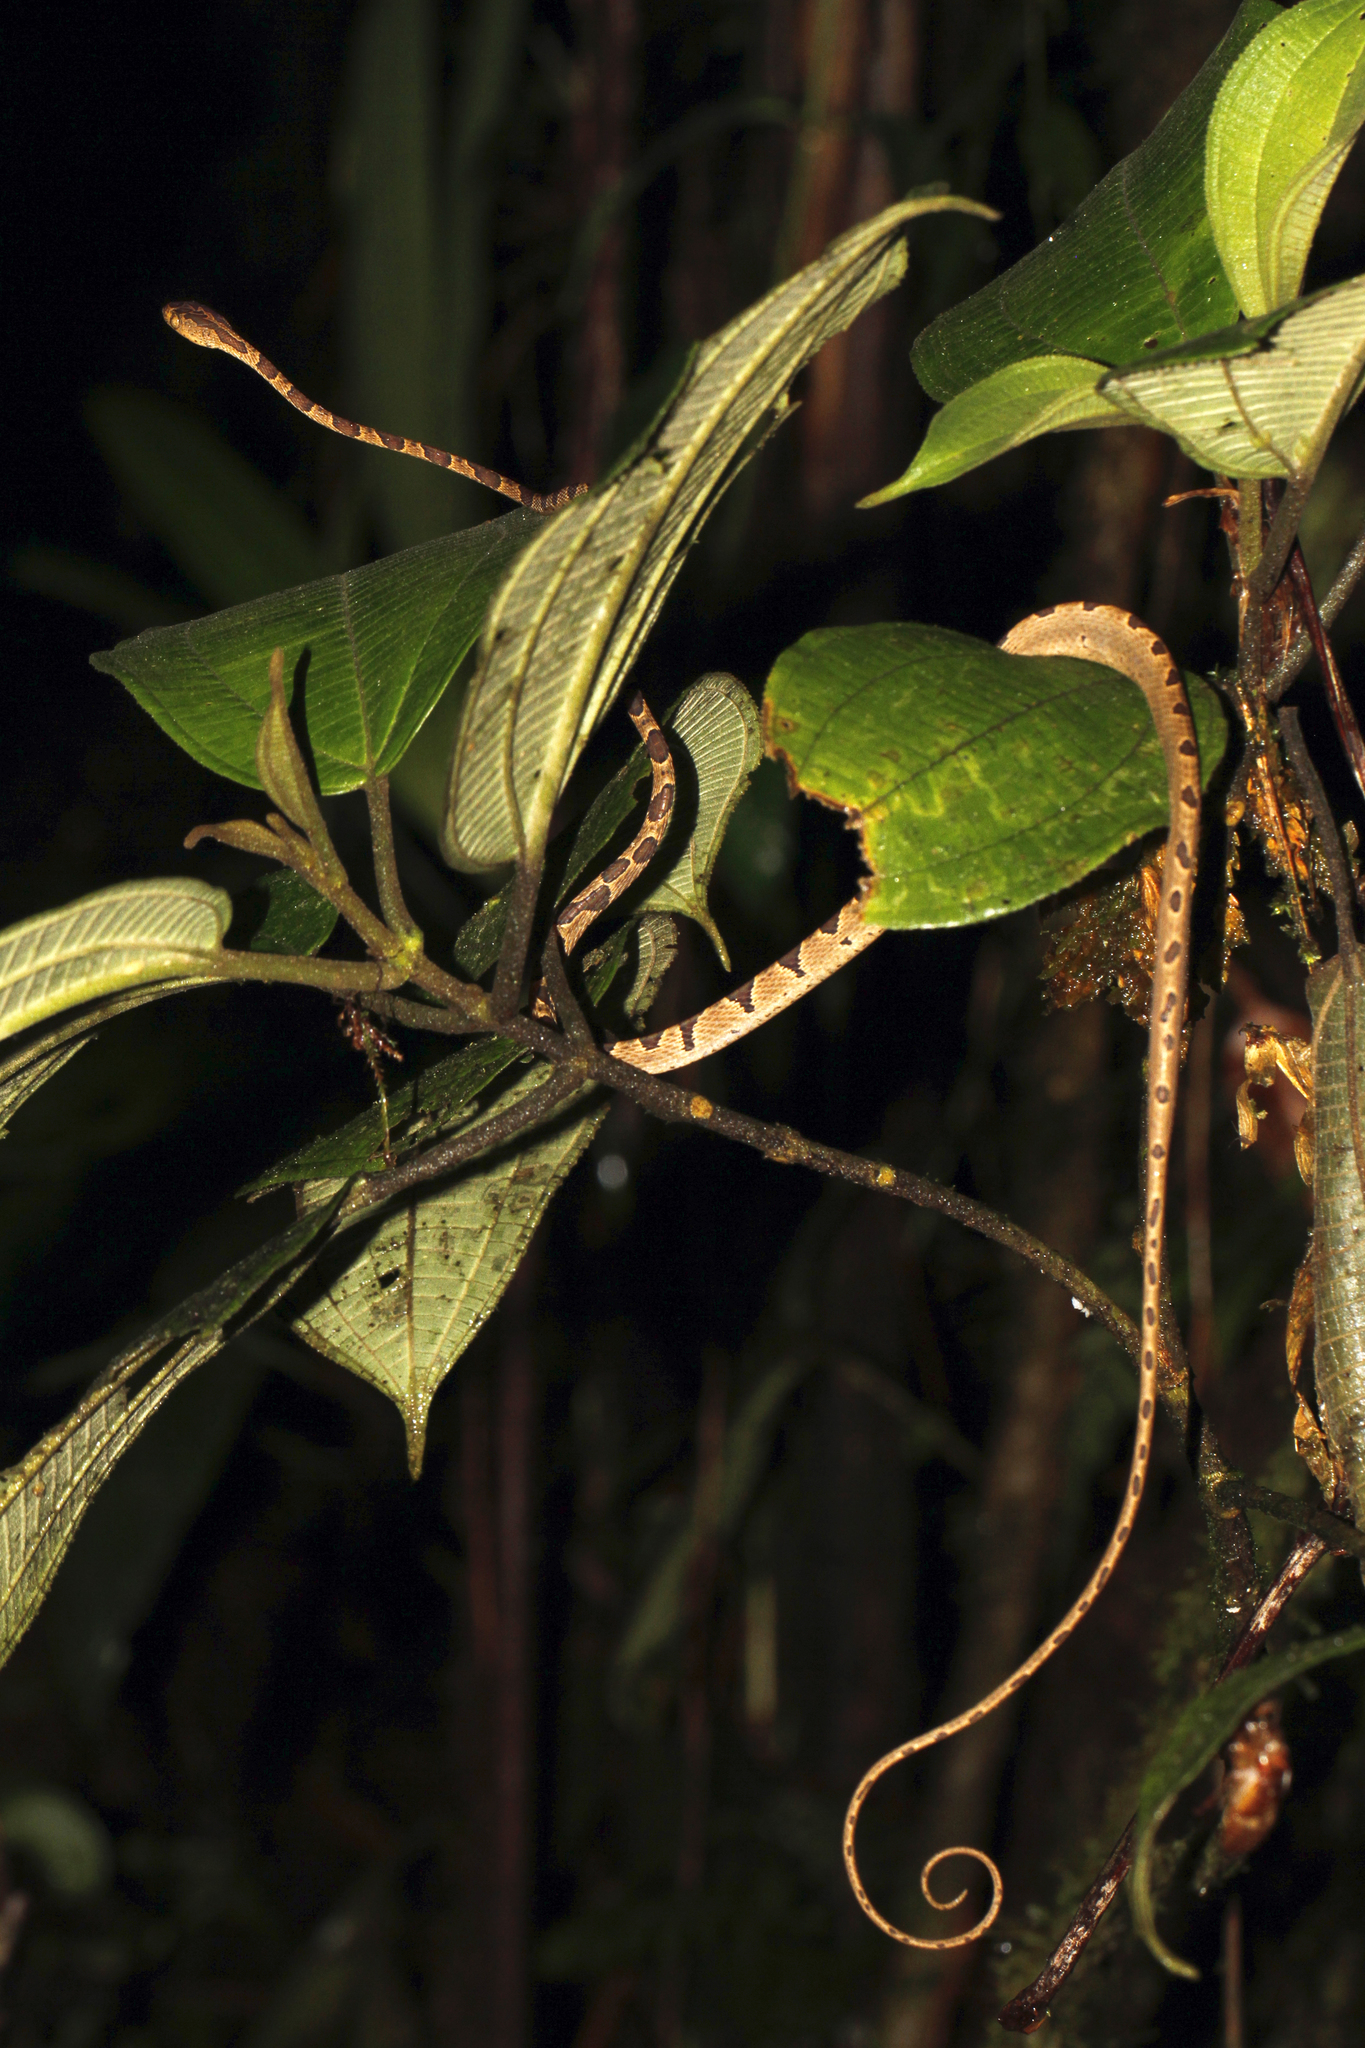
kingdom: Animalia
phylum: Chordata
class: Squamata
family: Colubridae
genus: Imantodes
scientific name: Imantodes cenchoa
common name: Blunthead tree snake
